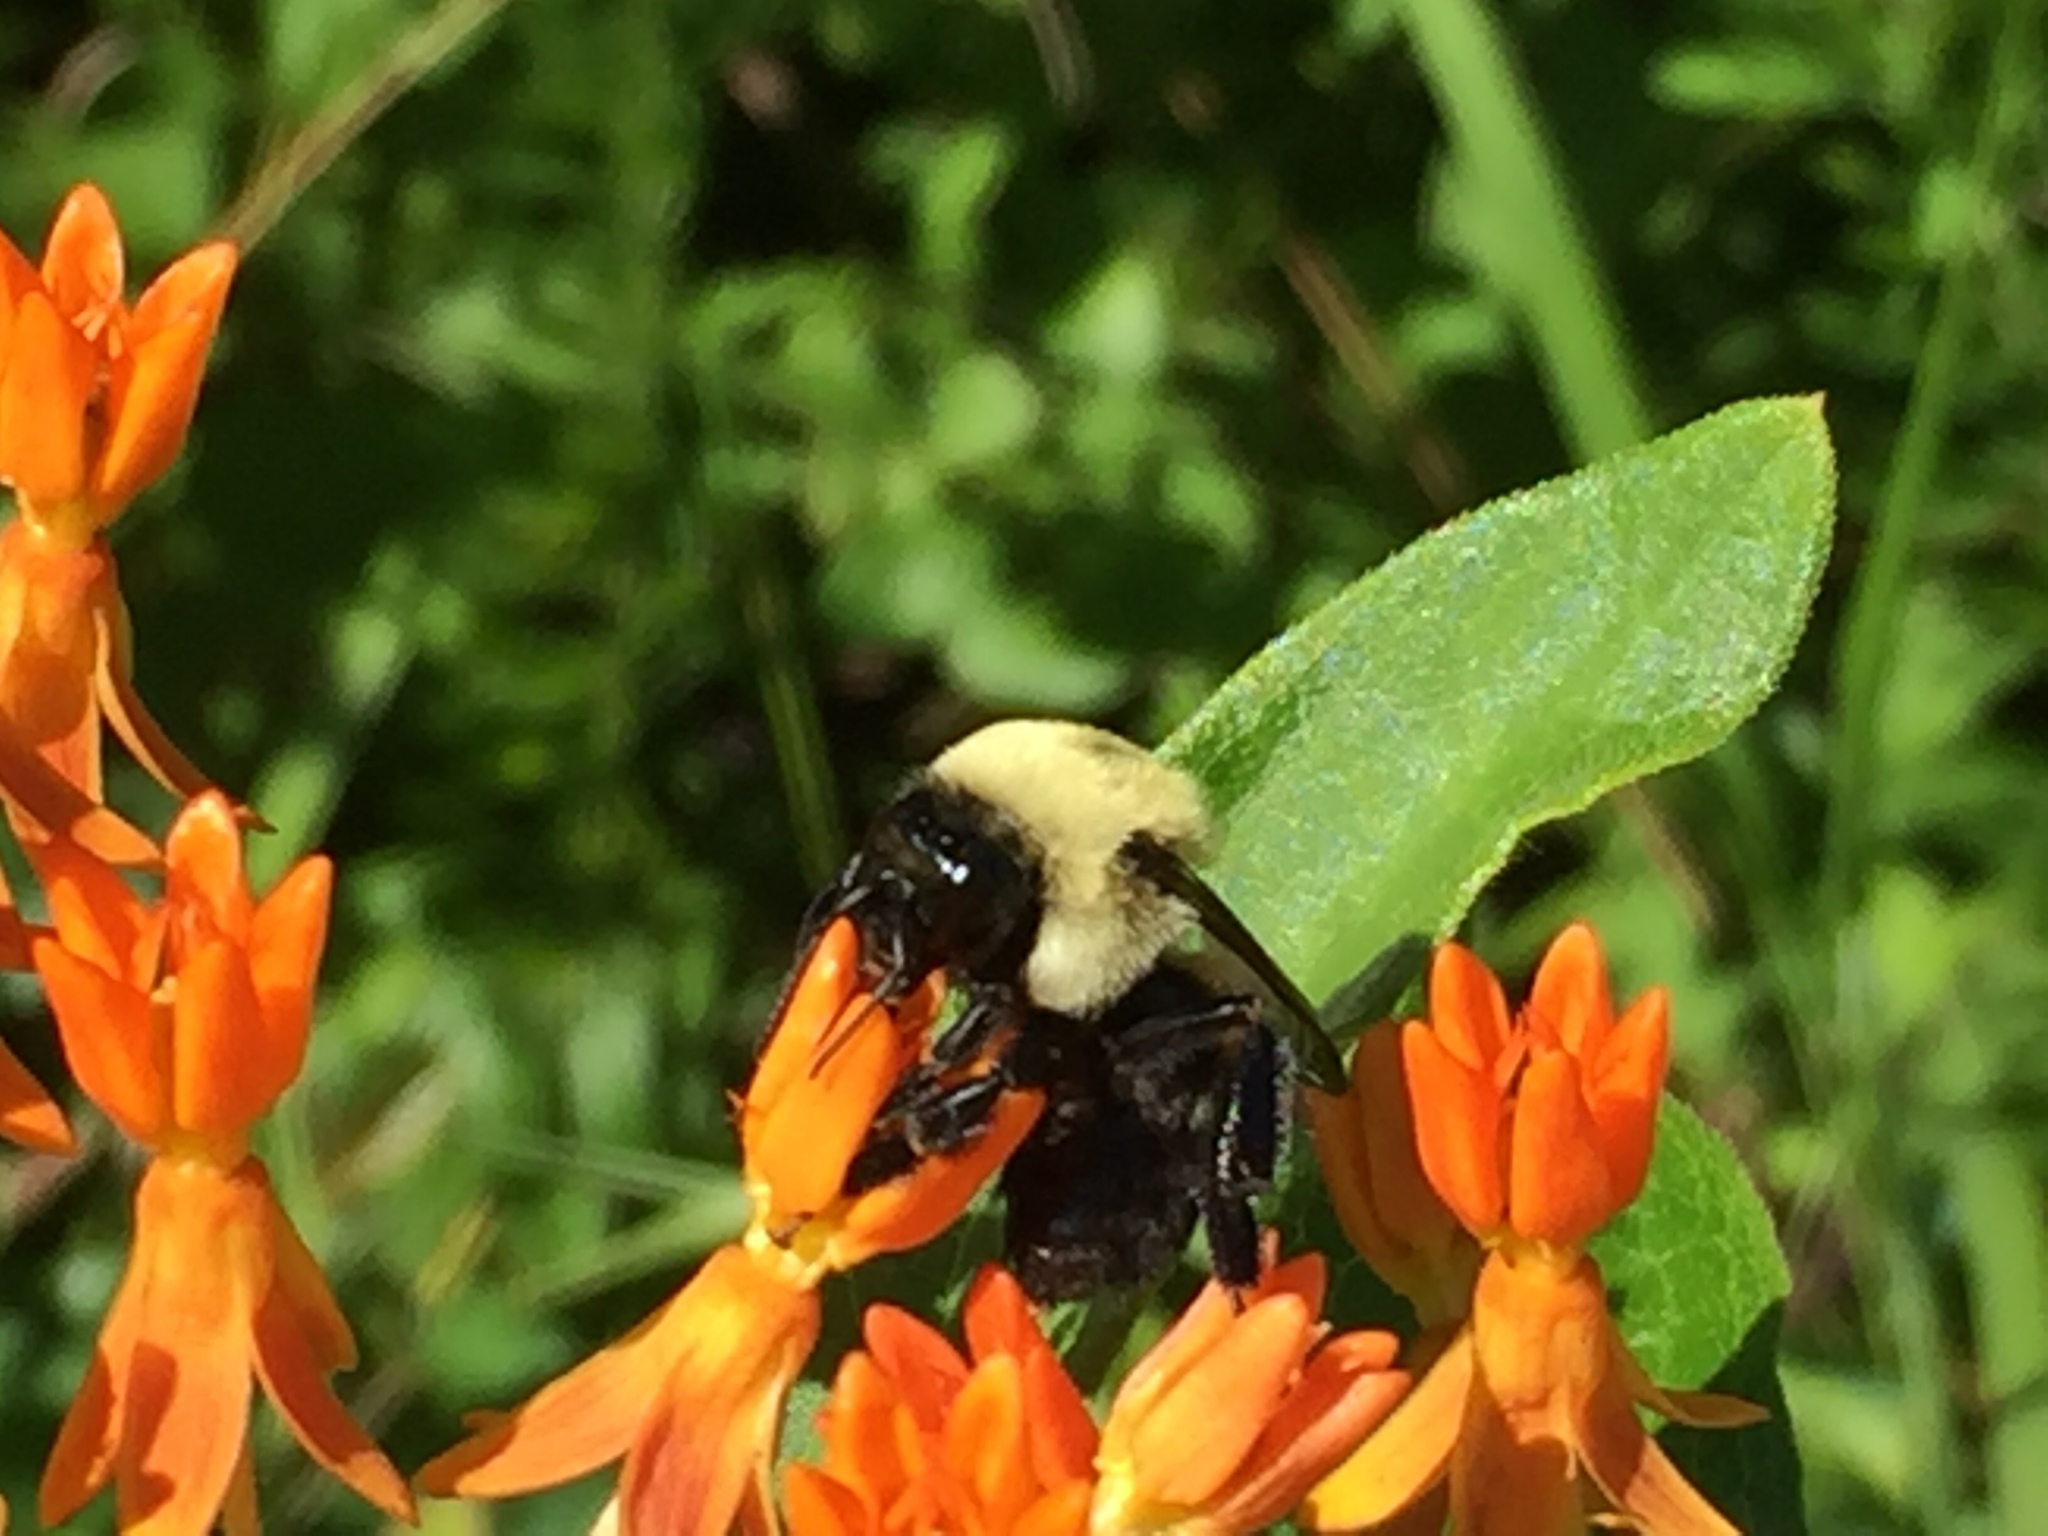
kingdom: Animalia
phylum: Arthropoda
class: Insecta
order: Hymenoptera
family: Apidae
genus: Bombus
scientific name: Bombus griseocollis
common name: Brown-belted bumble bee
